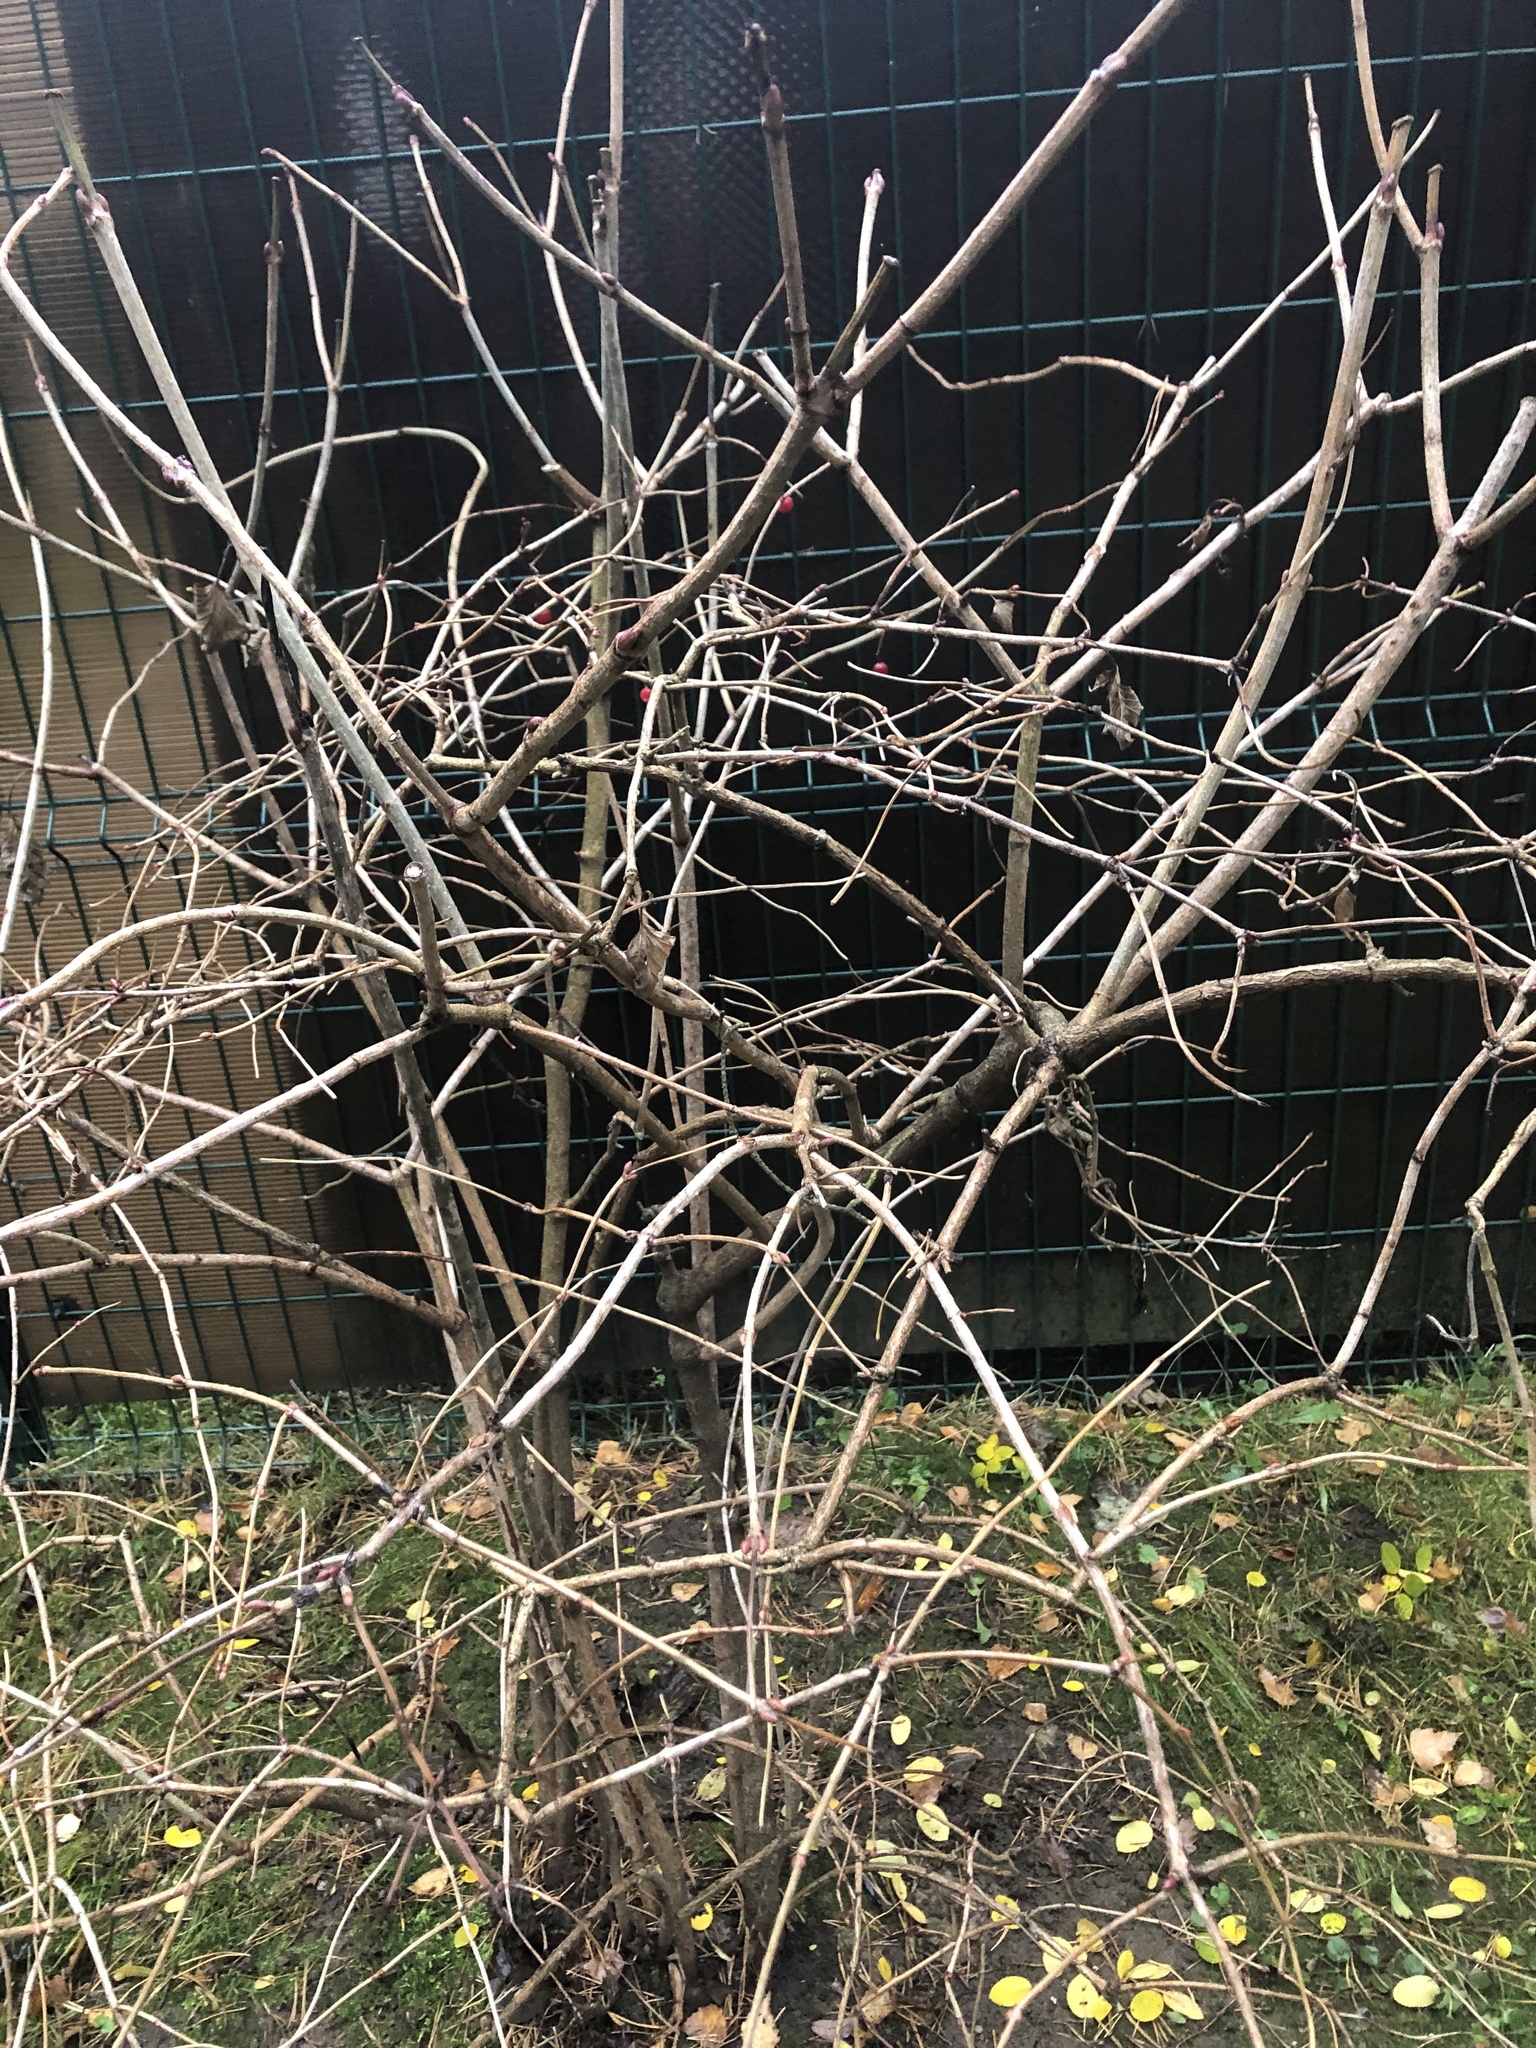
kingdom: Plantae
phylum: Tracheophyta
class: Magnoliopsida
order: Dipsacales
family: Viburnaceae
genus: Viburnum
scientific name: Viburnum opulus
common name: Guelder-rose
